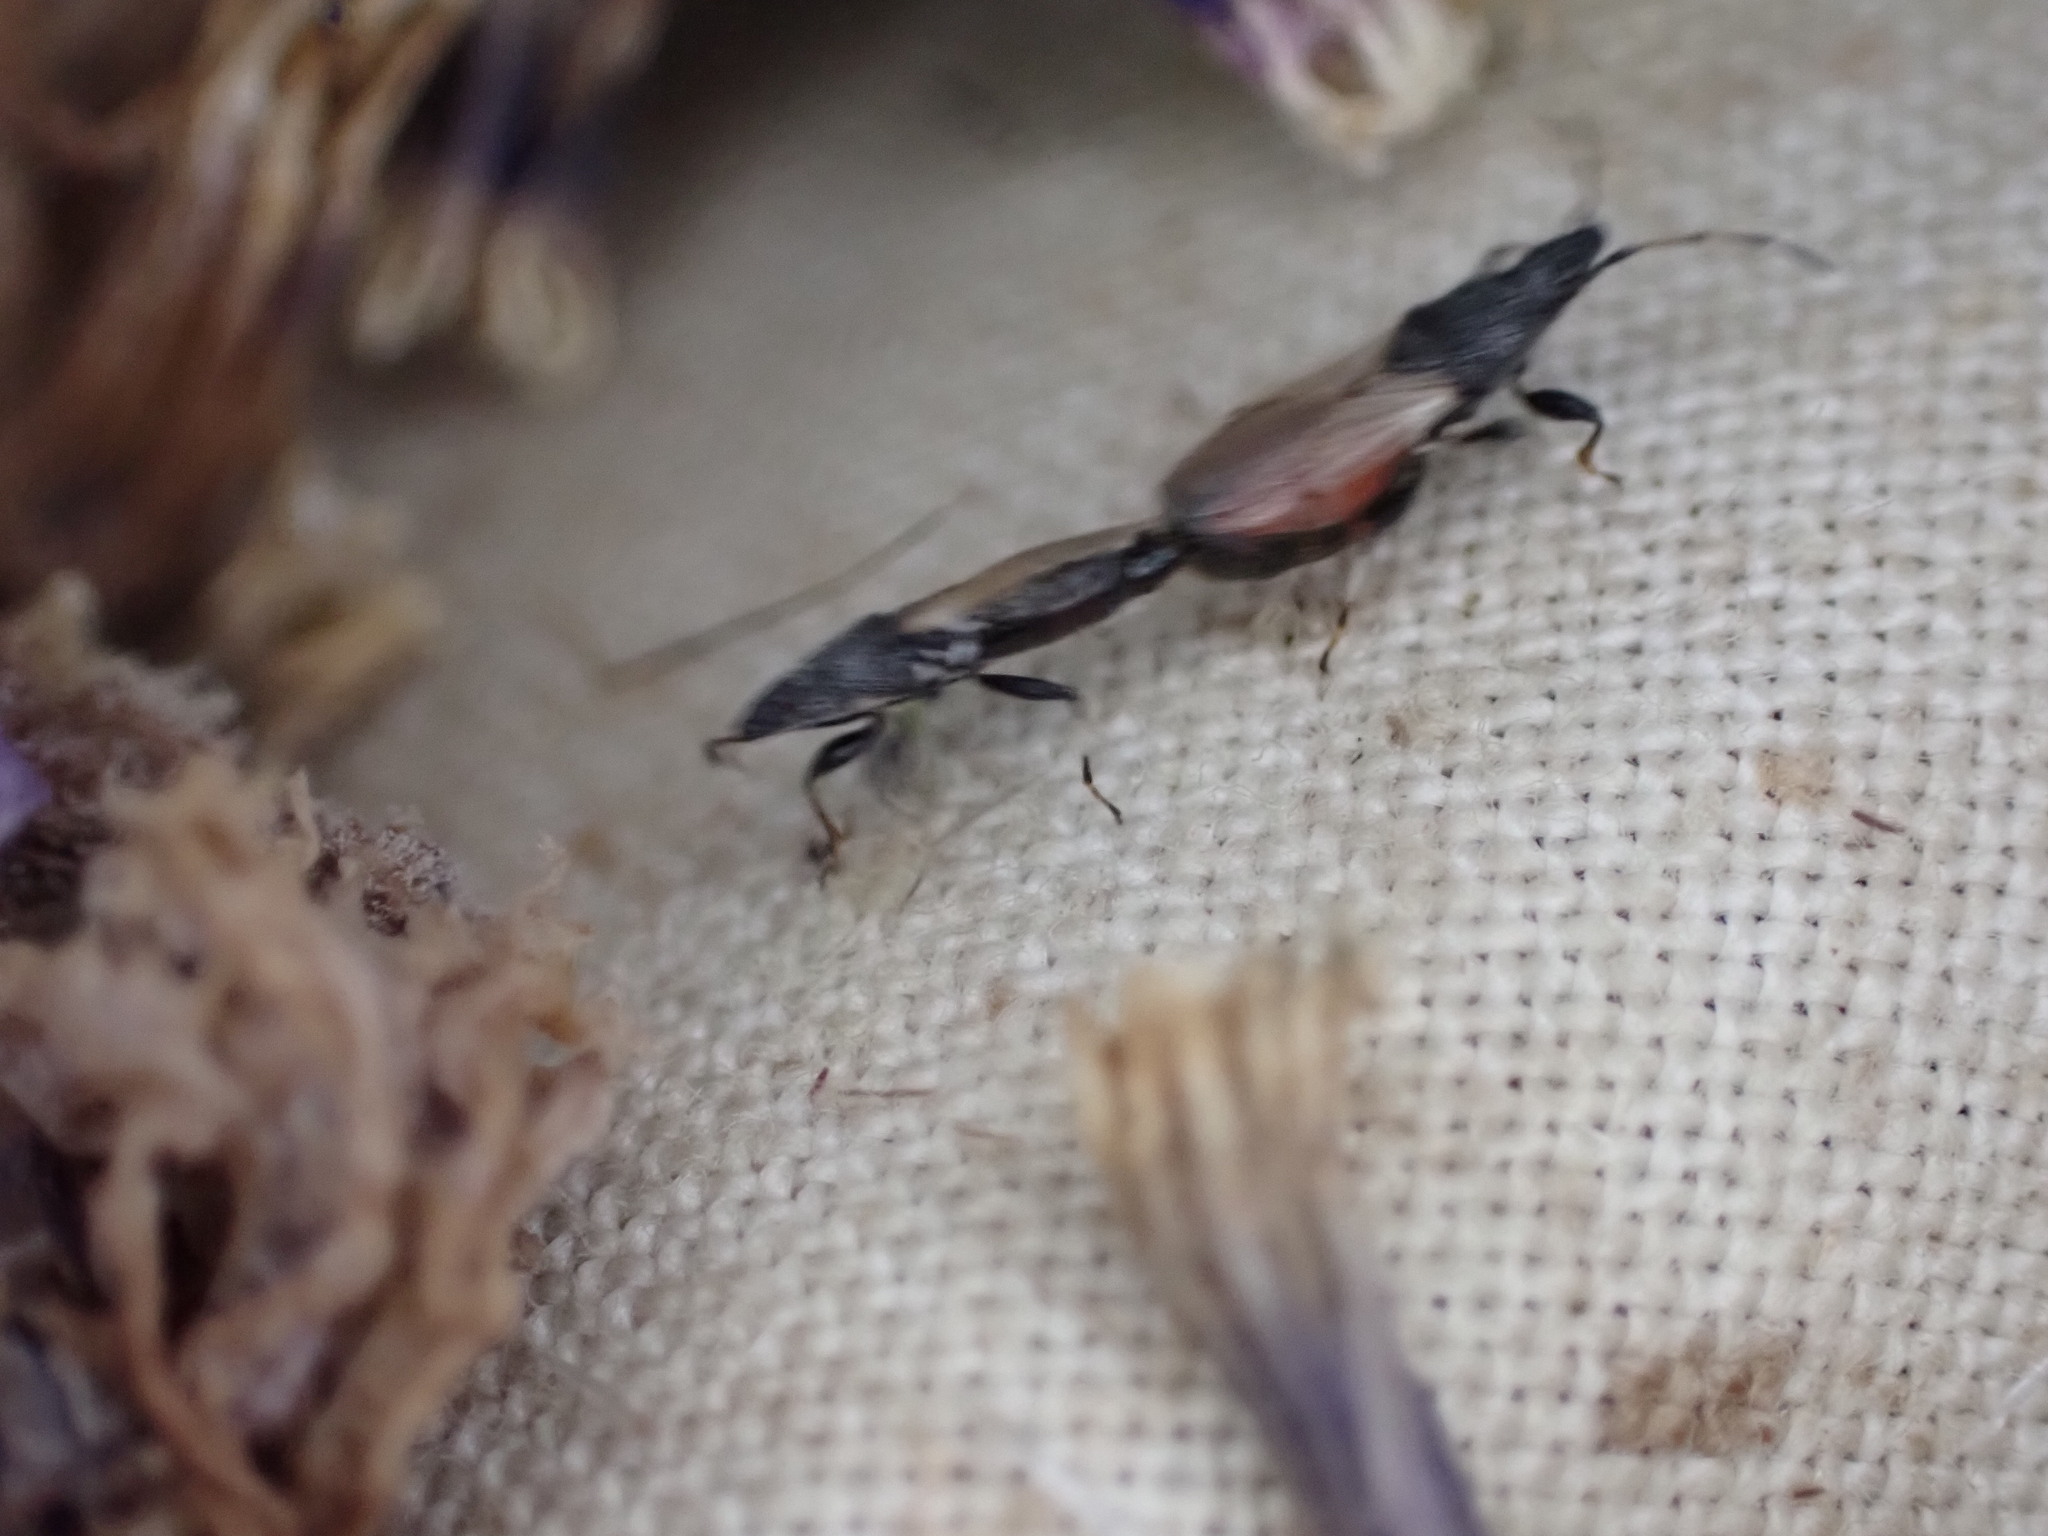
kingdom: Animalia
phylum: Arthropoda
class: Insecta
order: Hemiptera
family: Oxycarenidae
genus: Oxycarenus
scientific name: Oxycarenus hyalinipennis
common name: Cotton seed bug
